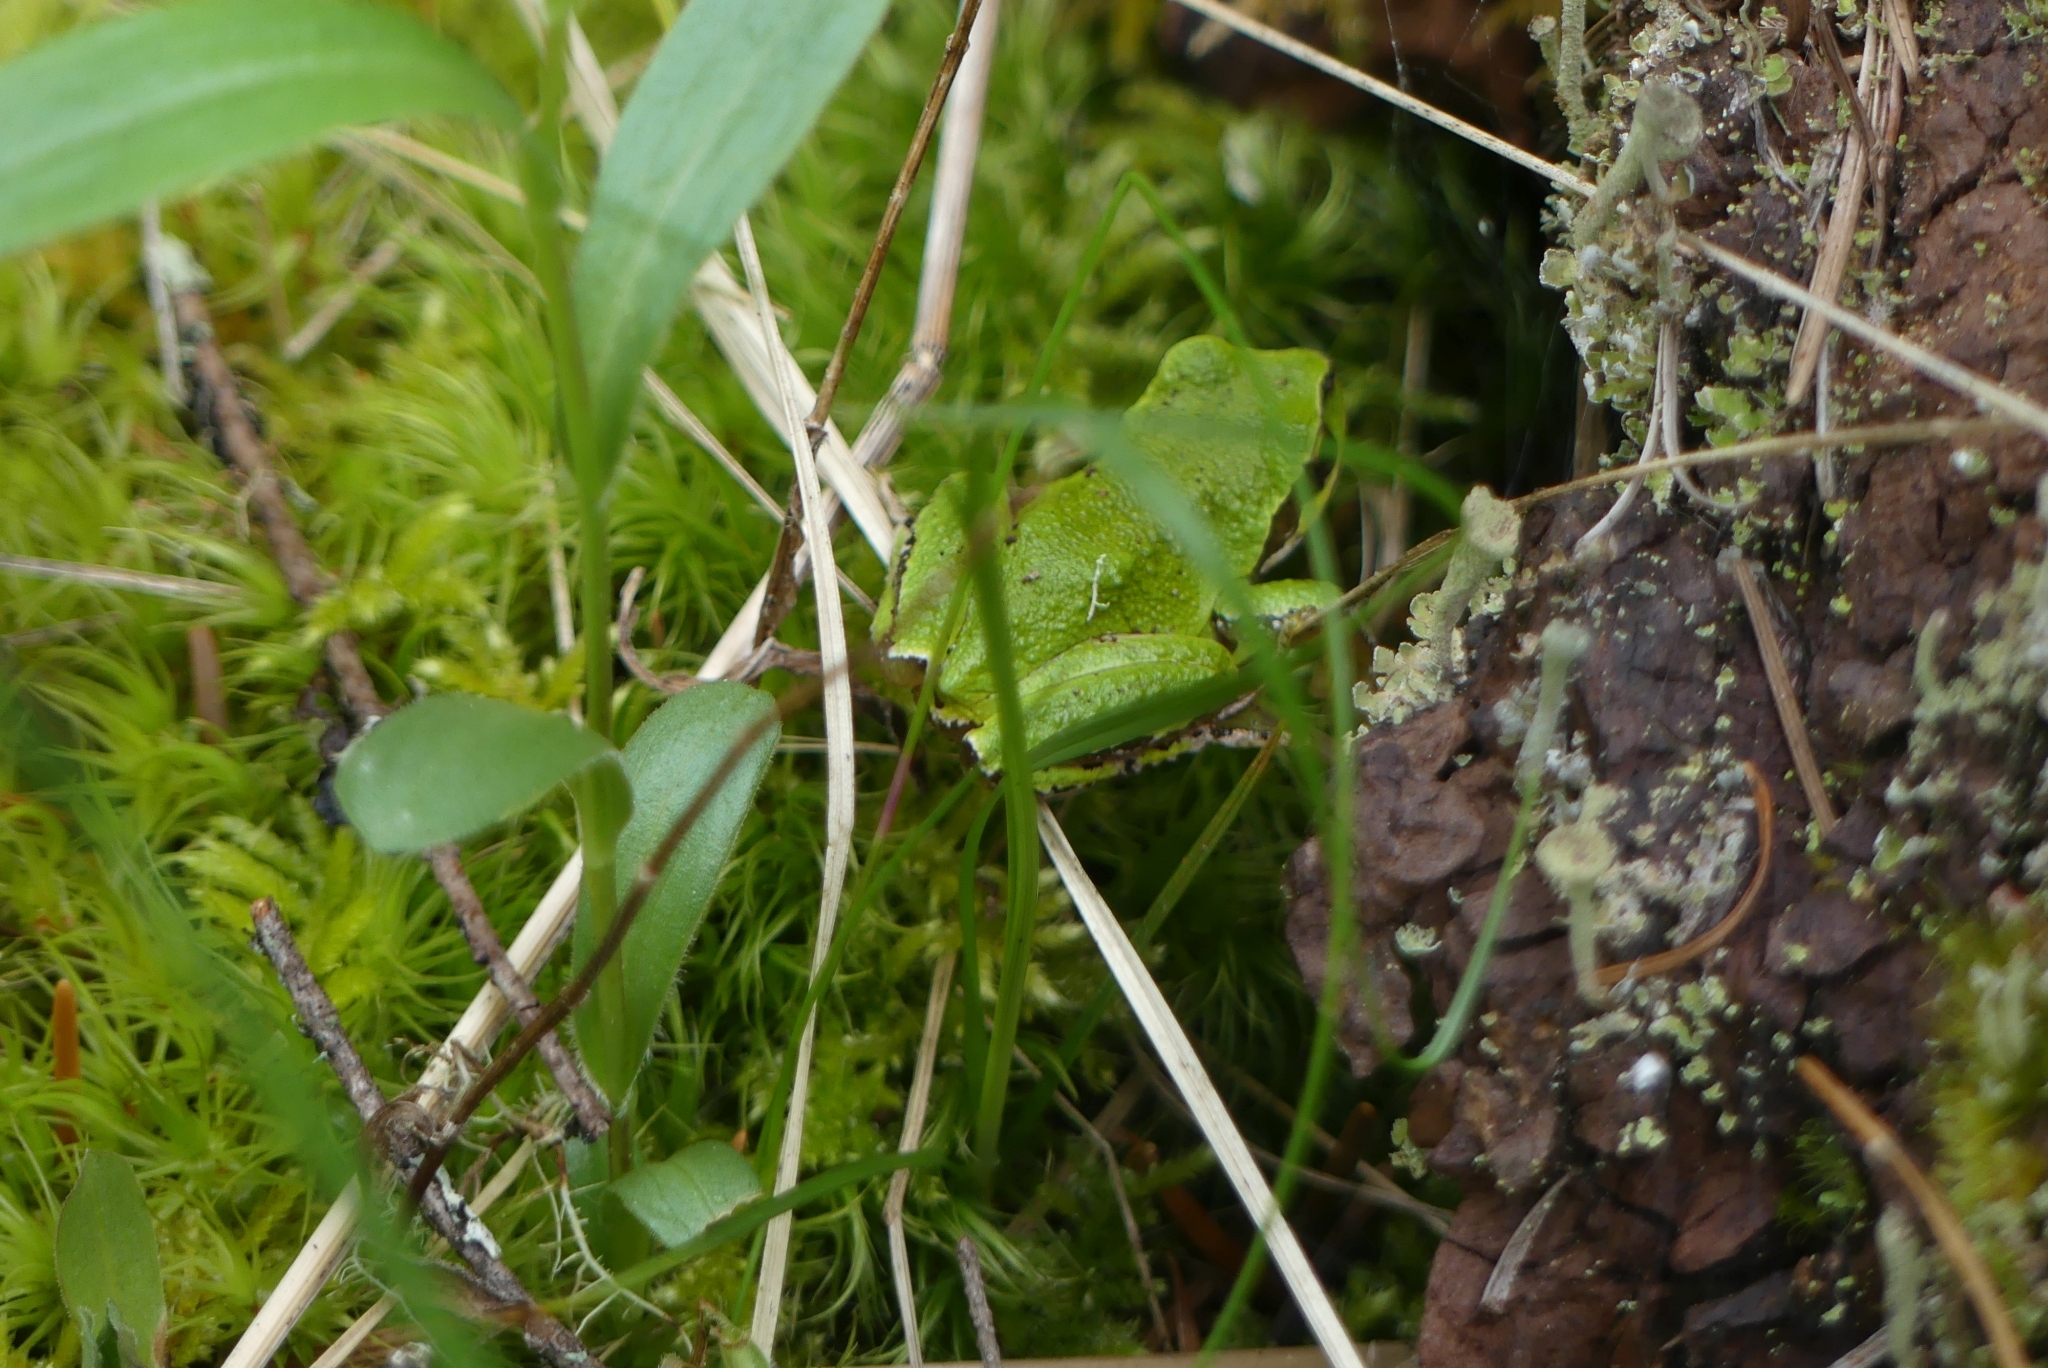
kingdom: Animalia
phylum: Chordata
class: Amphibia
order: Anura
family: Hylidae
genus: Pseudacris
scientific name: Pseudacris regilla
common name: Pacific chorus frog
